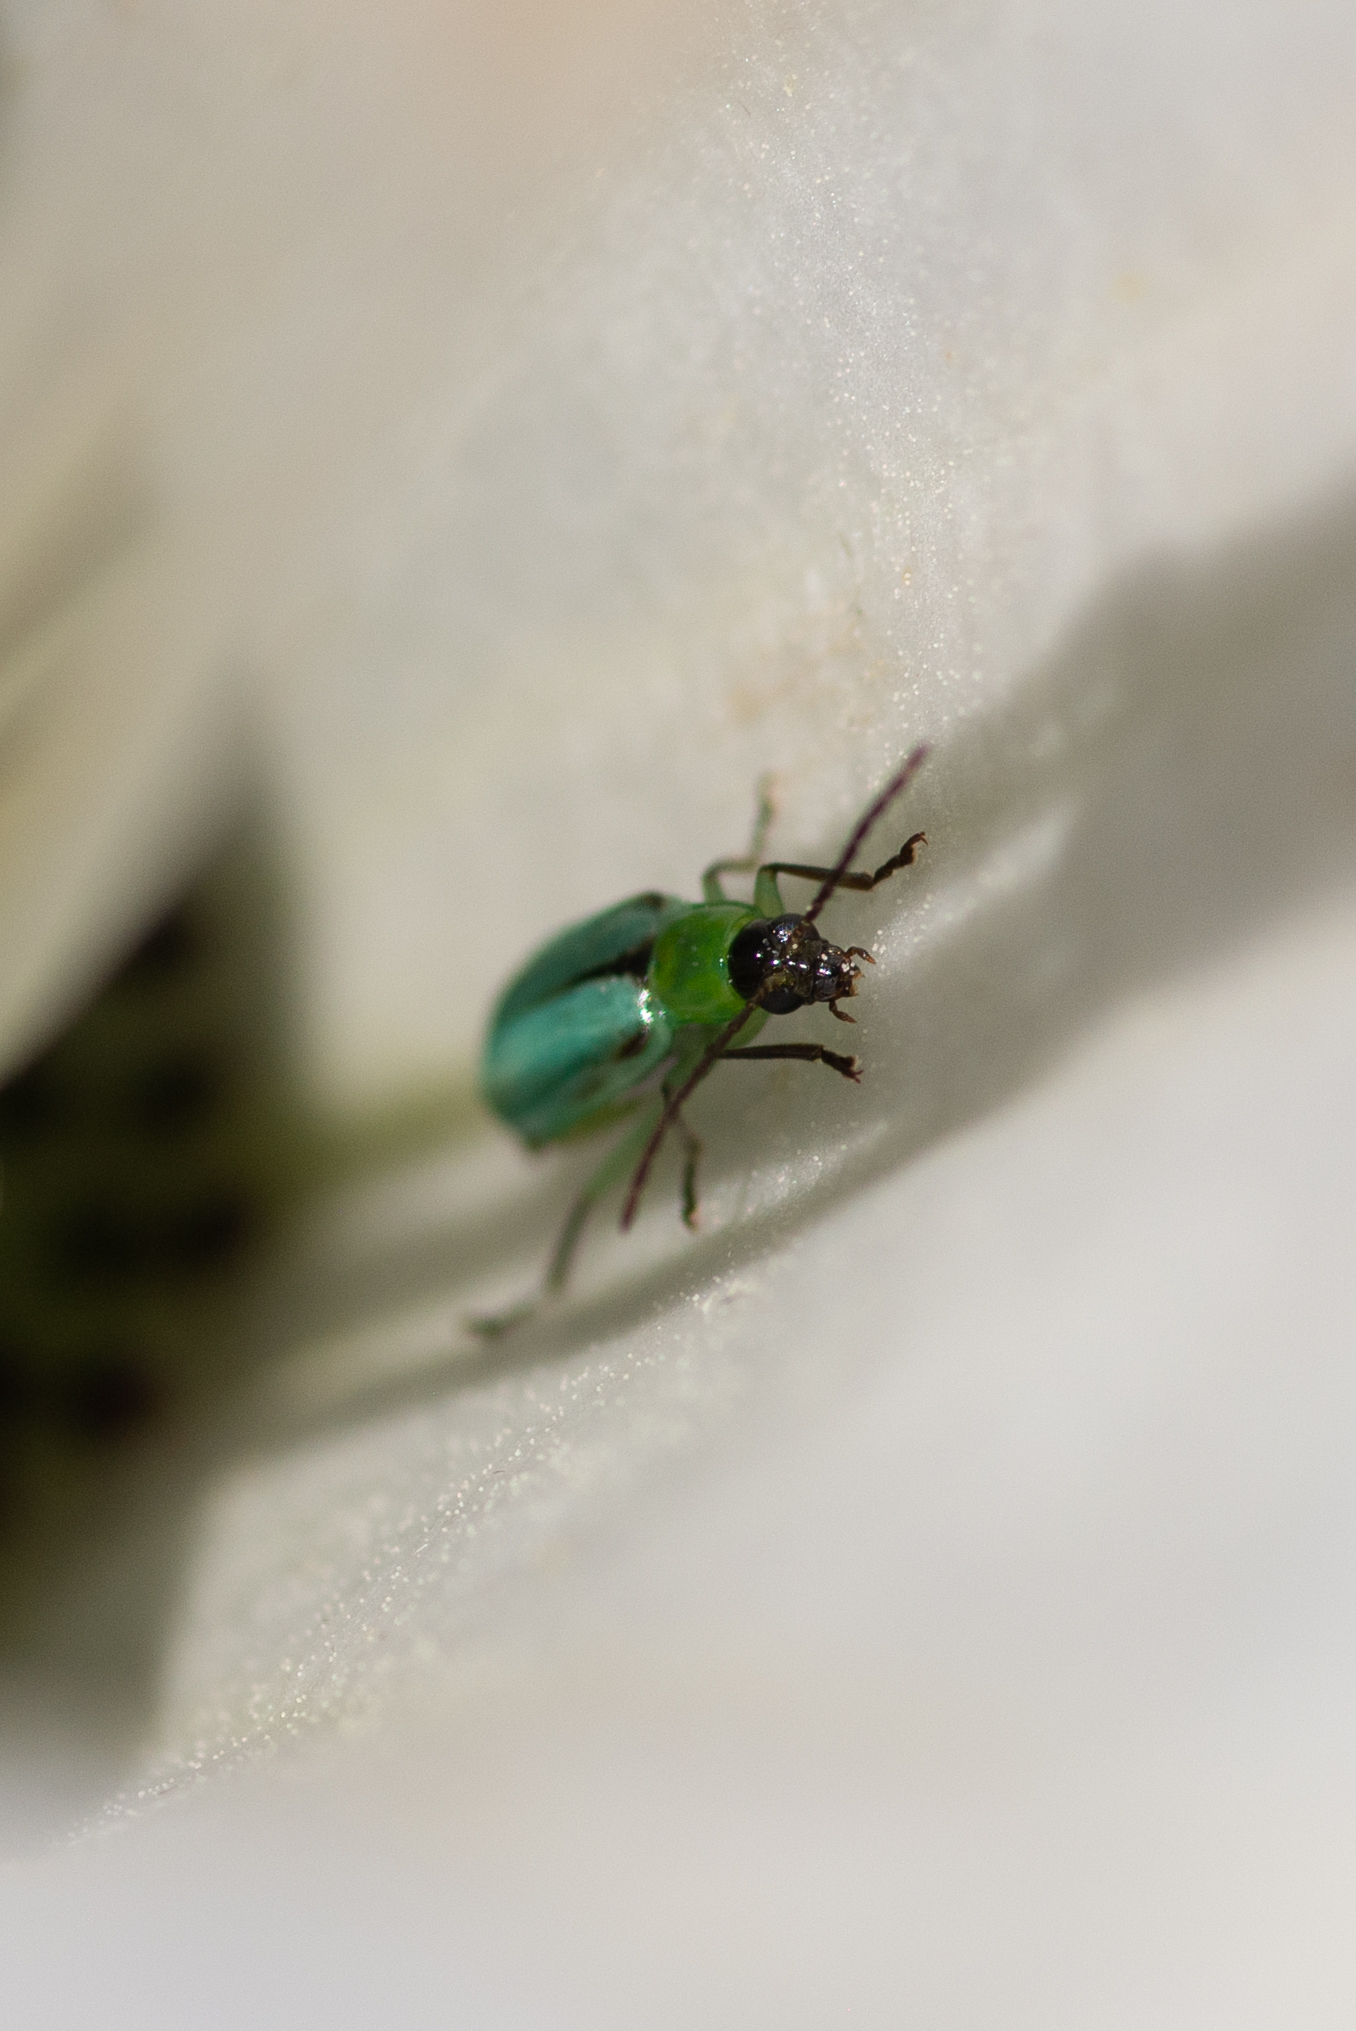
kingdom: Animalia
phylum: Arthropoda
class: Insecta
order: Coleoptera
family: Chrysomelidae
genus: Diabrotica
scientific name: Diabrotica longicornis
